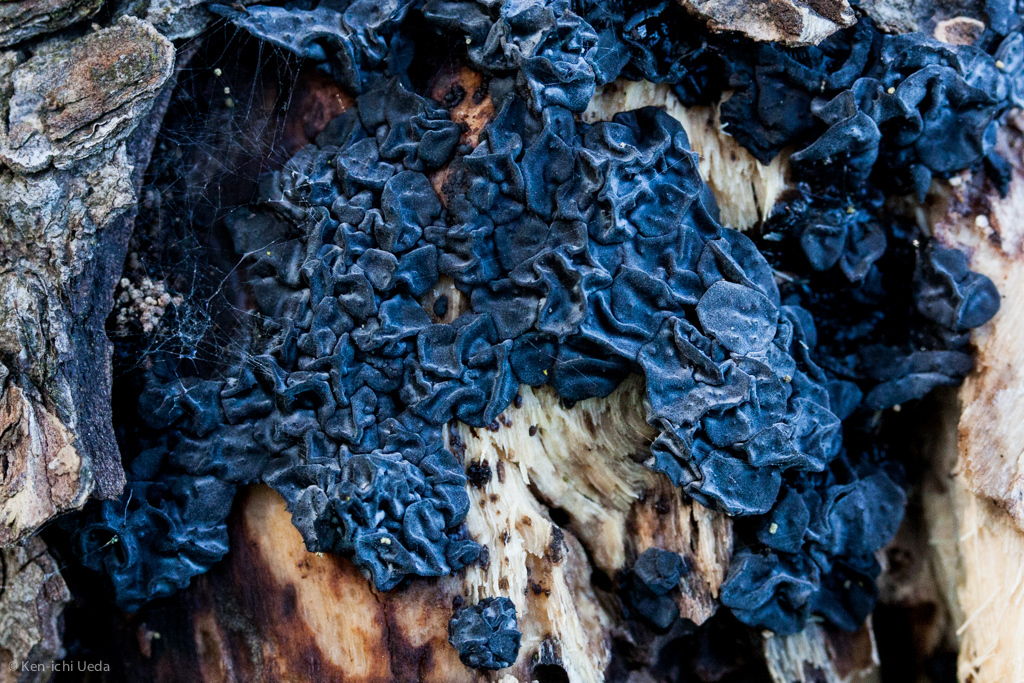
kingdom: Fungi
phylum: Basidiomycota
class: Agaricomycetes
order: Auriculariales
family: Auriculariaceae
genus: Exidia
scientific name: Exidia glandulosa
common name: Witches' butter
